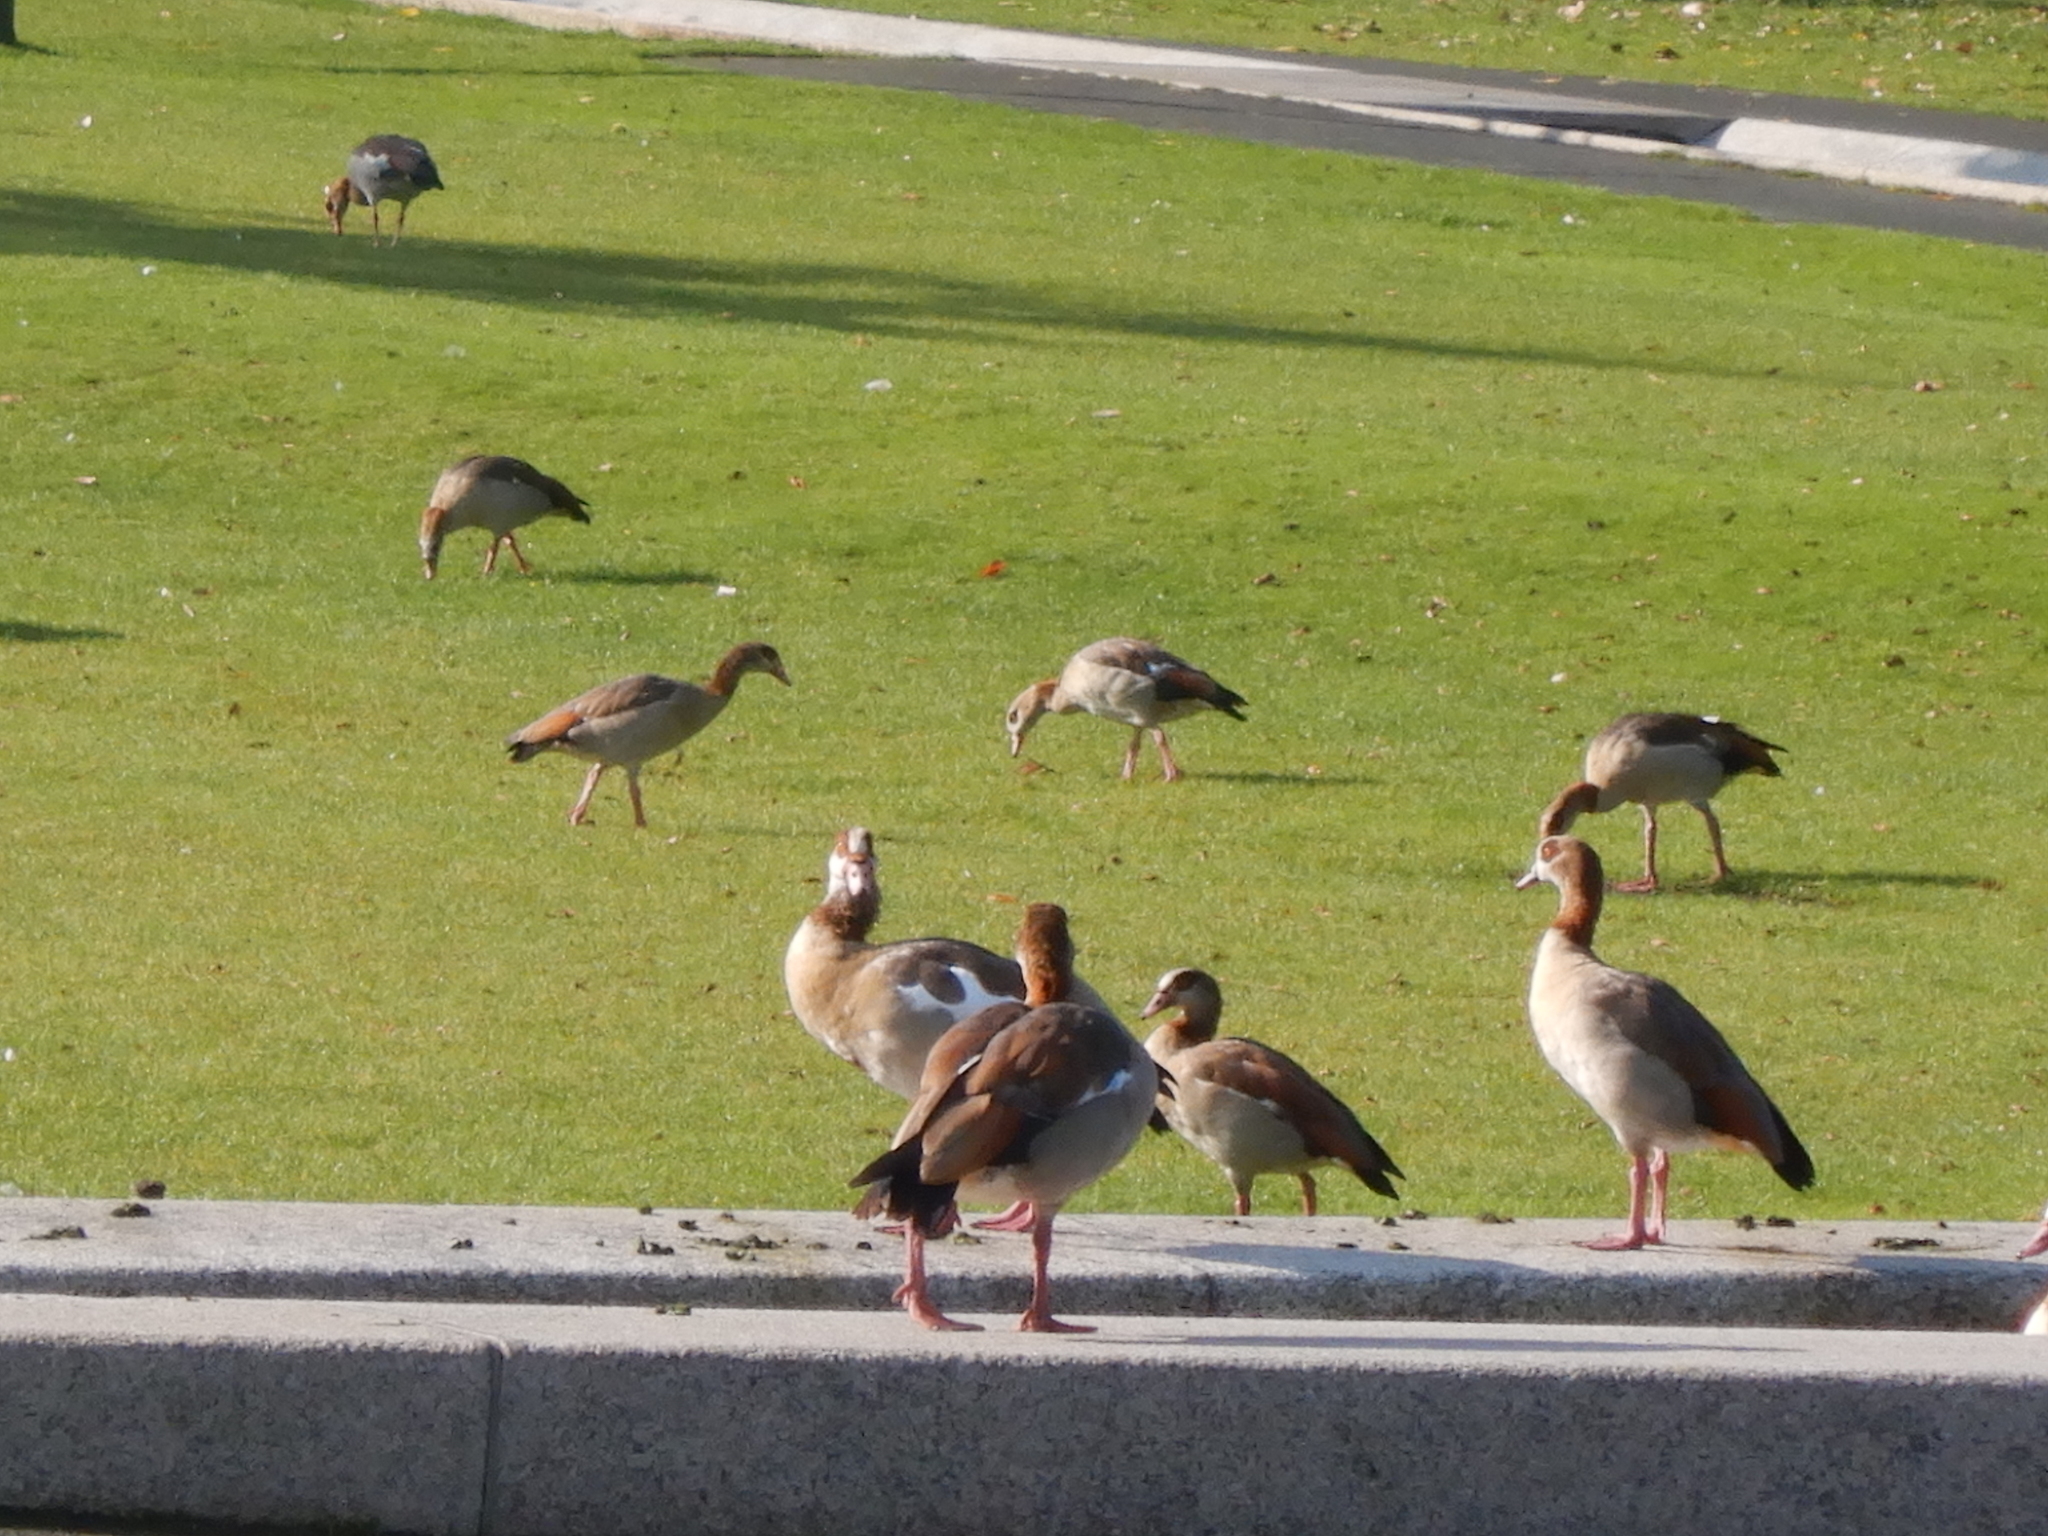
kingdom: Animalia
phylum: Chordata
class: Aves
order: Anseriformes
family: Anatidae
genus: Alopochen
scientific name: Alopochen aegyptiaca
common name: Egyptian goose
